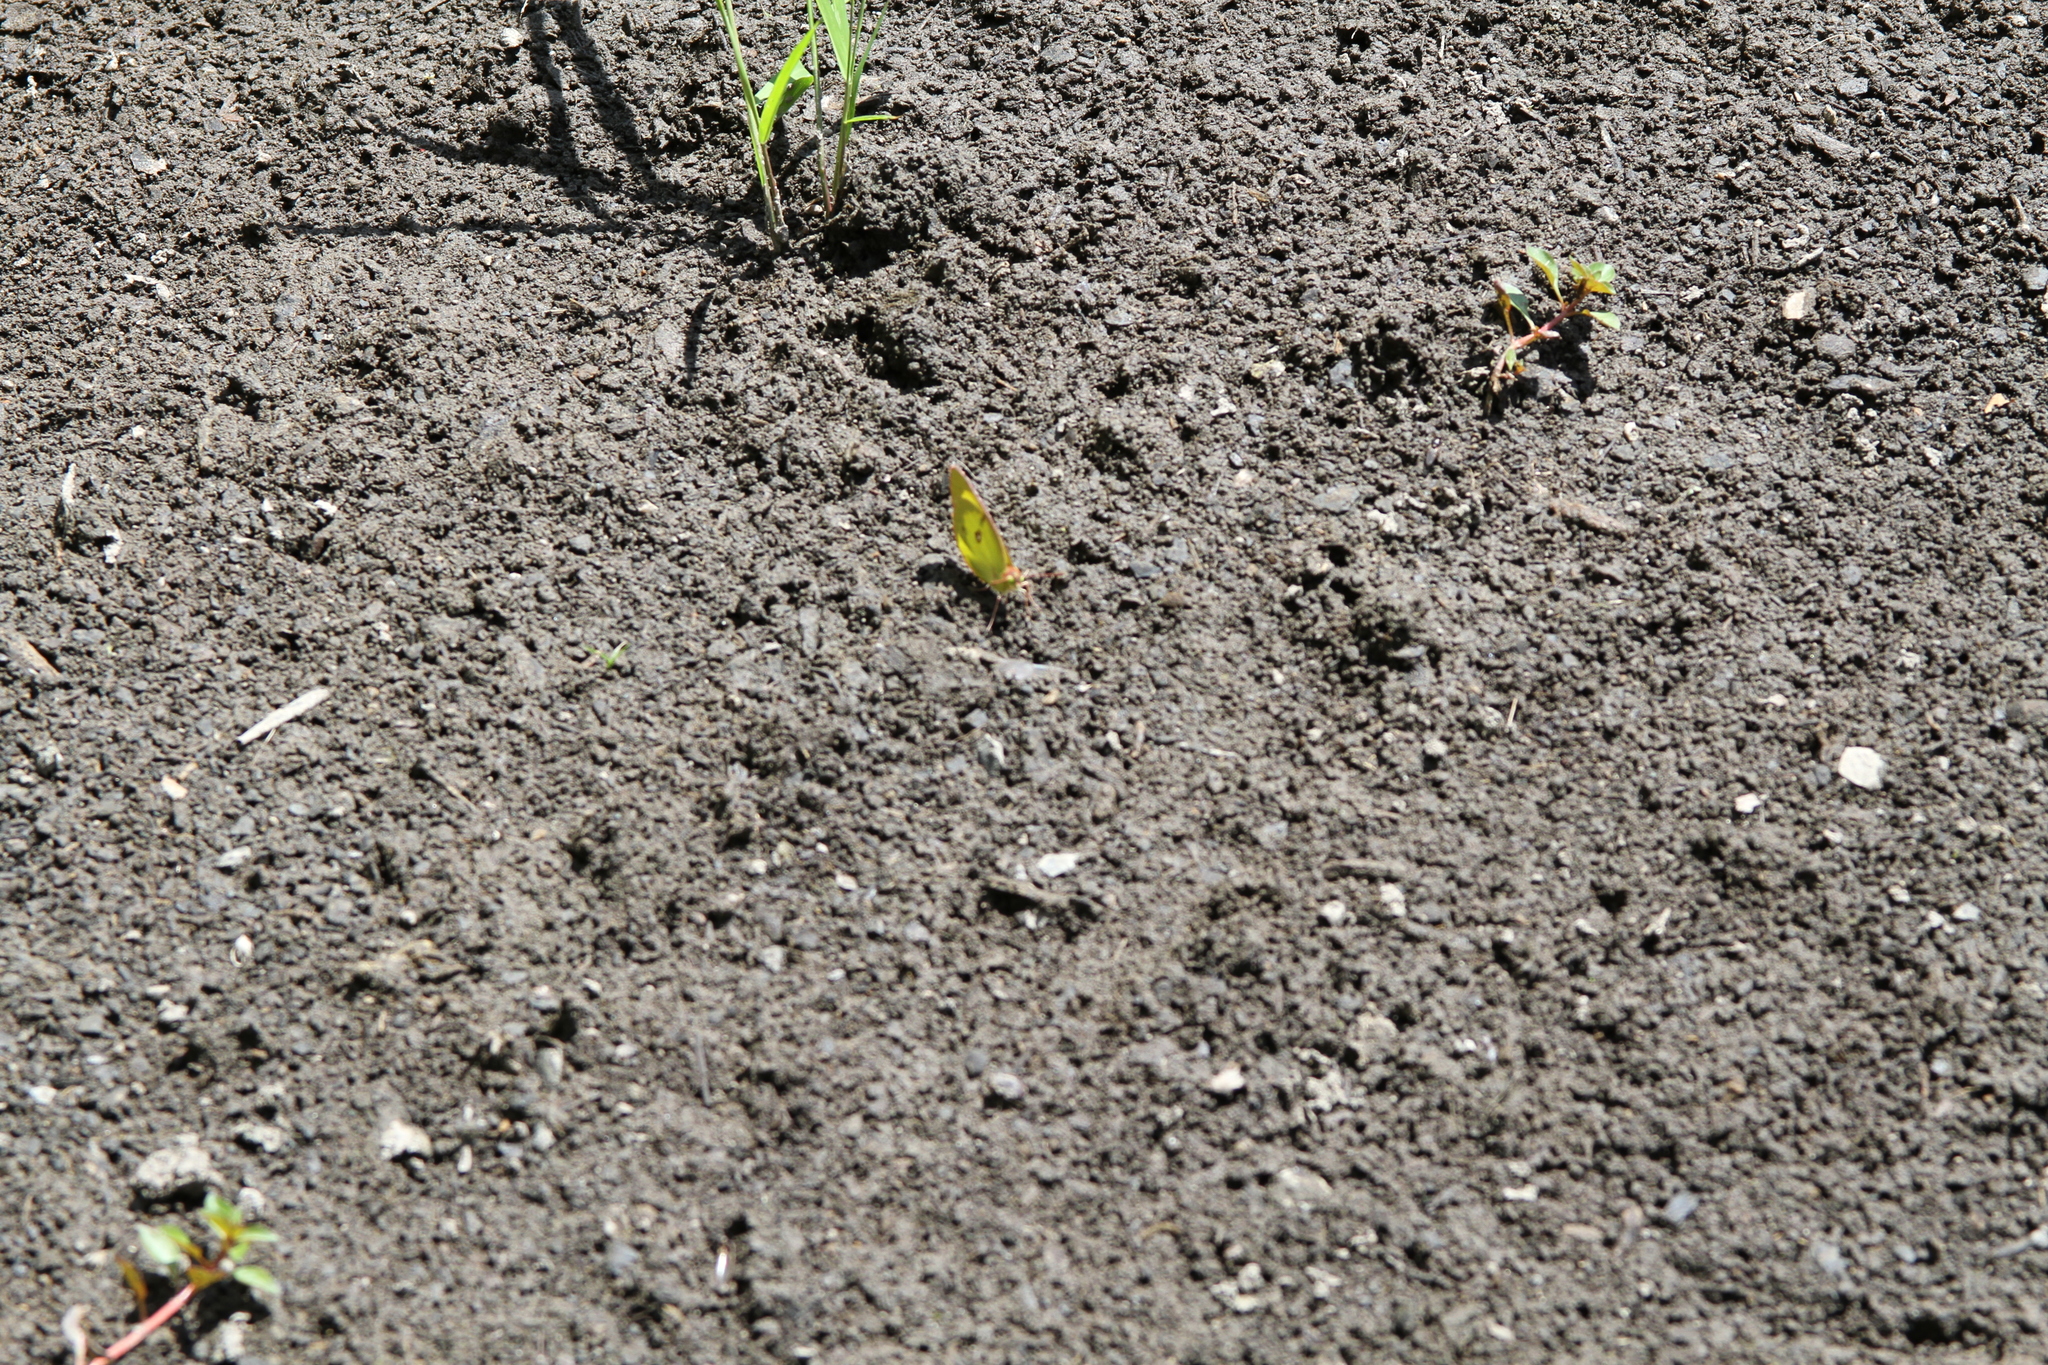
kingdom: Animalia
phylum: Arthropoda
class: Insecta
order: Lepidoptera
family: Pieridae
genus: Colias
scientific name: Colias philodice
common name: Clouded sulphur
